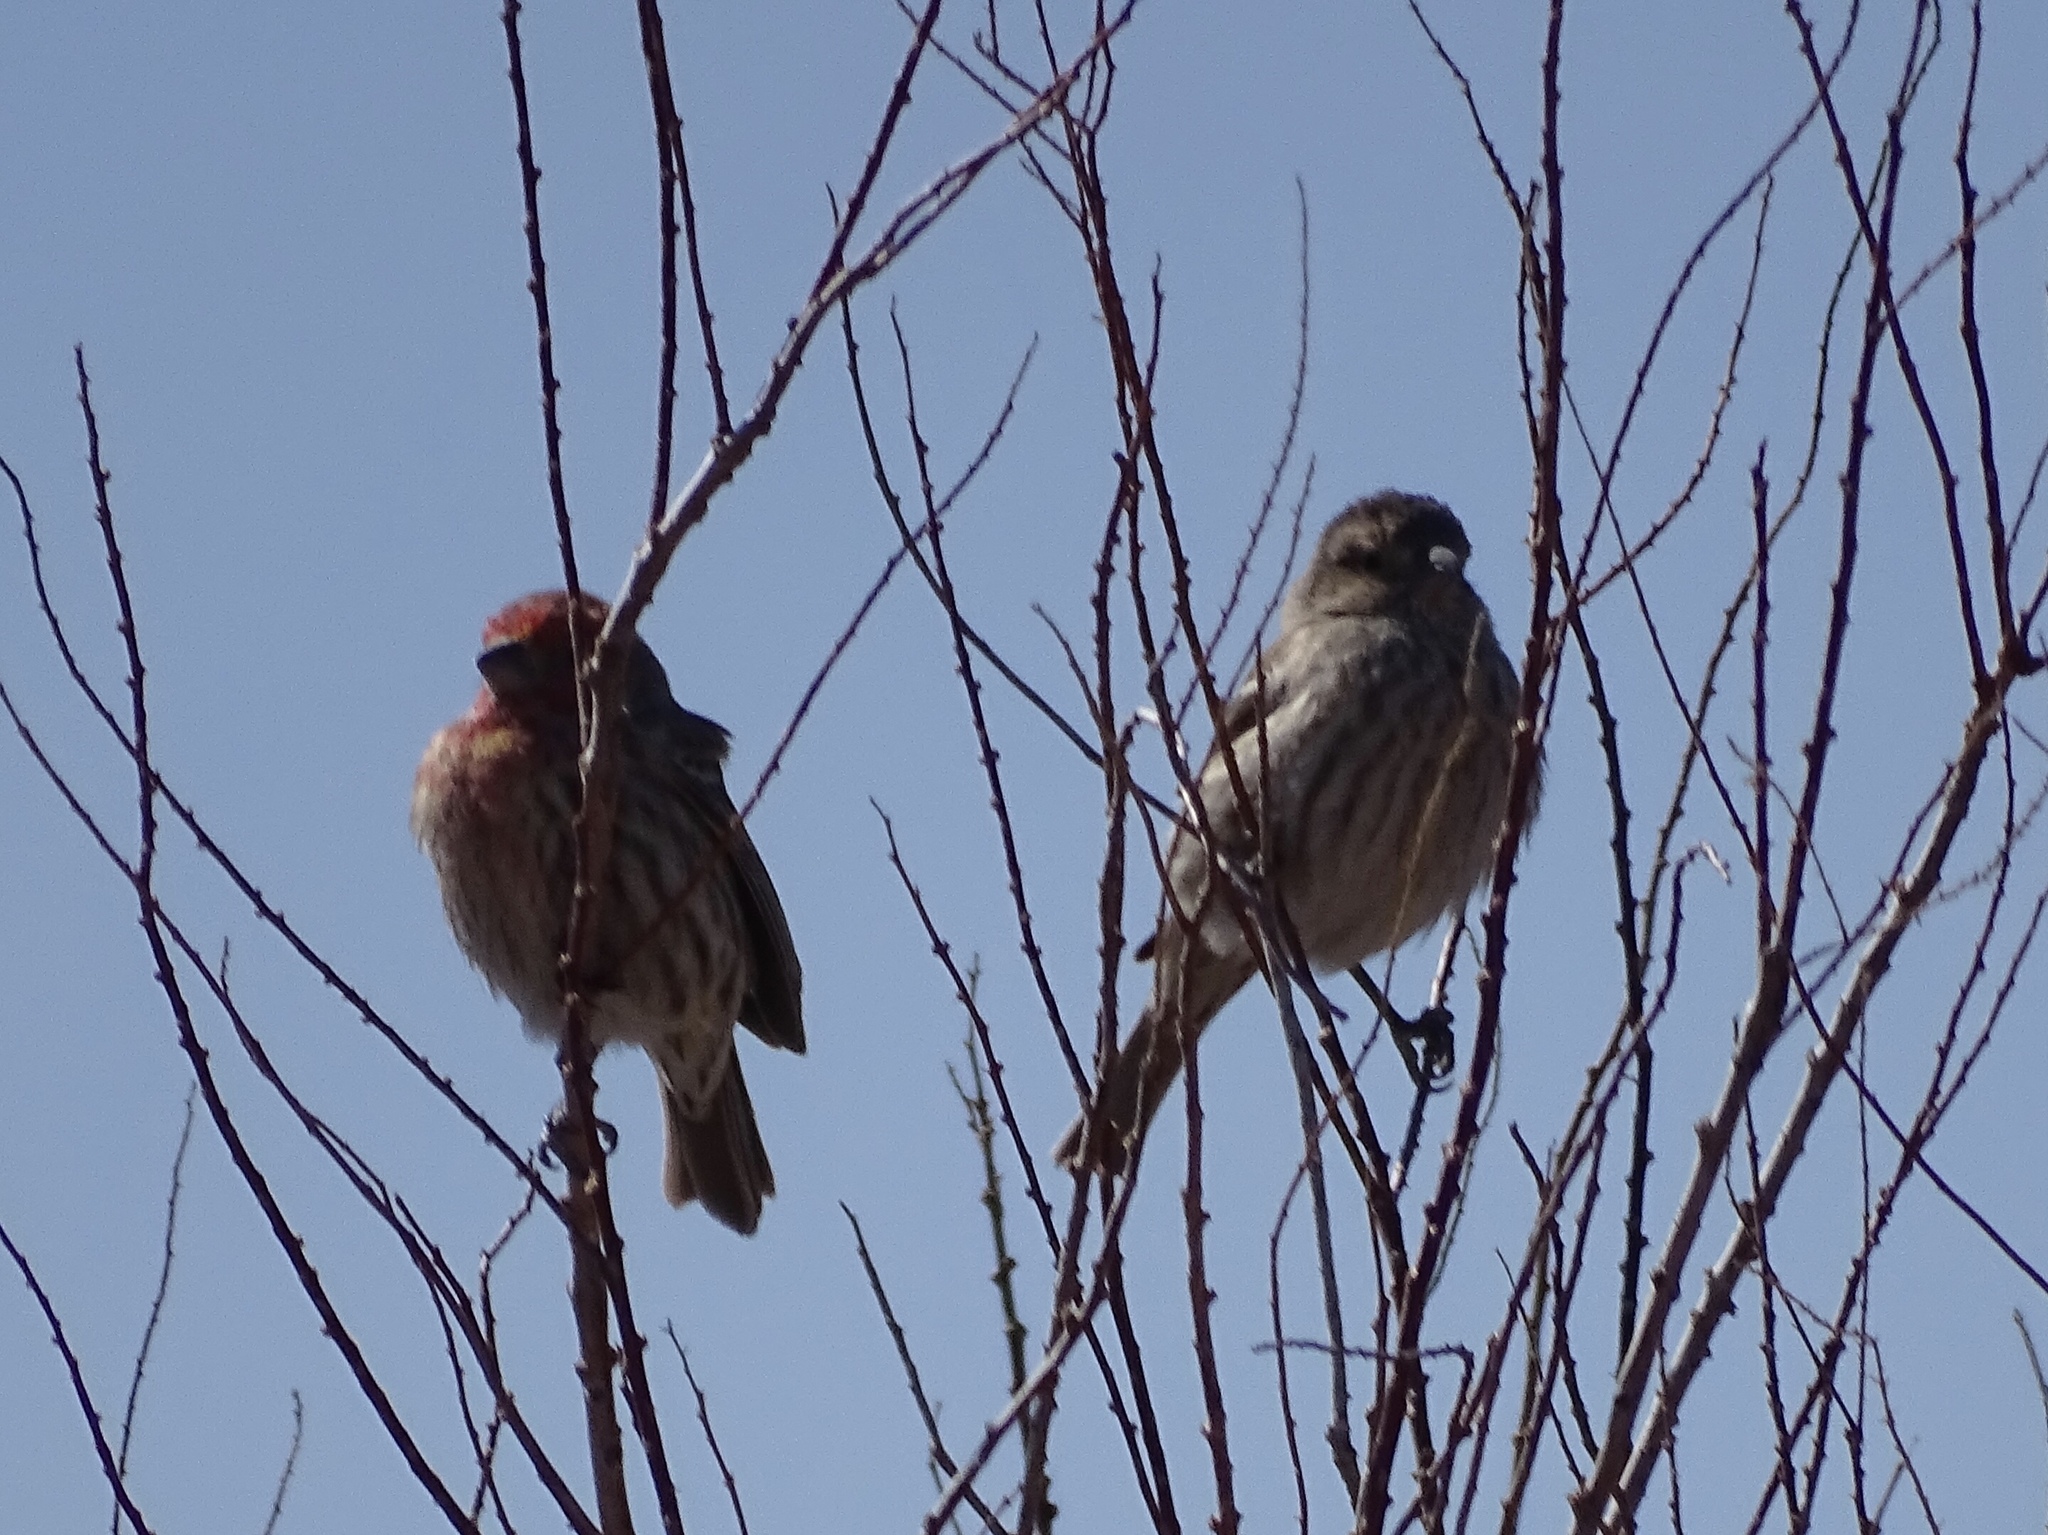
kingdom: Animalia
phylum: Chordata
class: Aves
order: Passeriformes
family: Fringillidae
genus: Haemorhous
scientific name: Haemorhous mexicanus
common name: House finch
